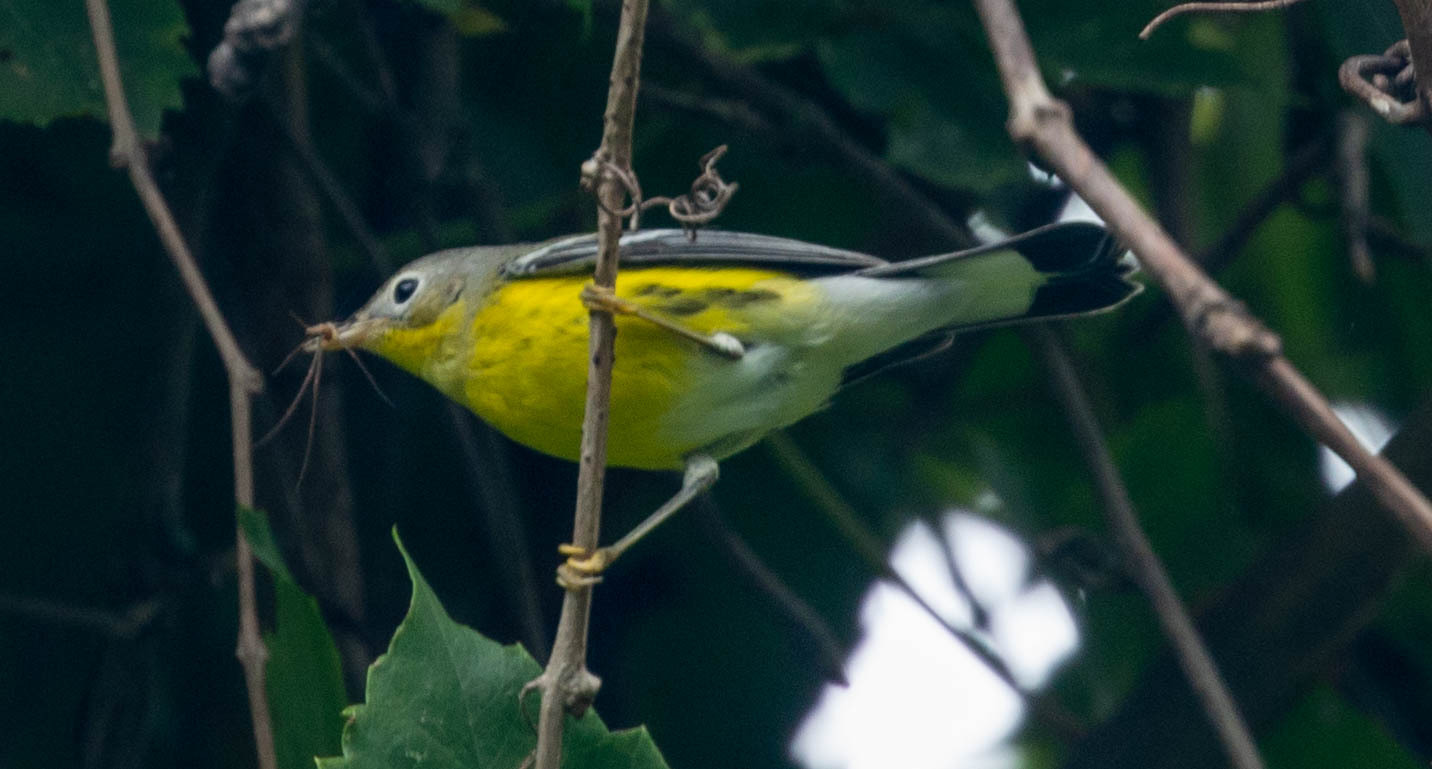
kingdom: Animalia
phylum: Chordata
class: Aves
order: Passeriformes
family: Parulidae
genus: Setophaga
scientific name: Setophaga magnolia
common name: Magnolia warbler
